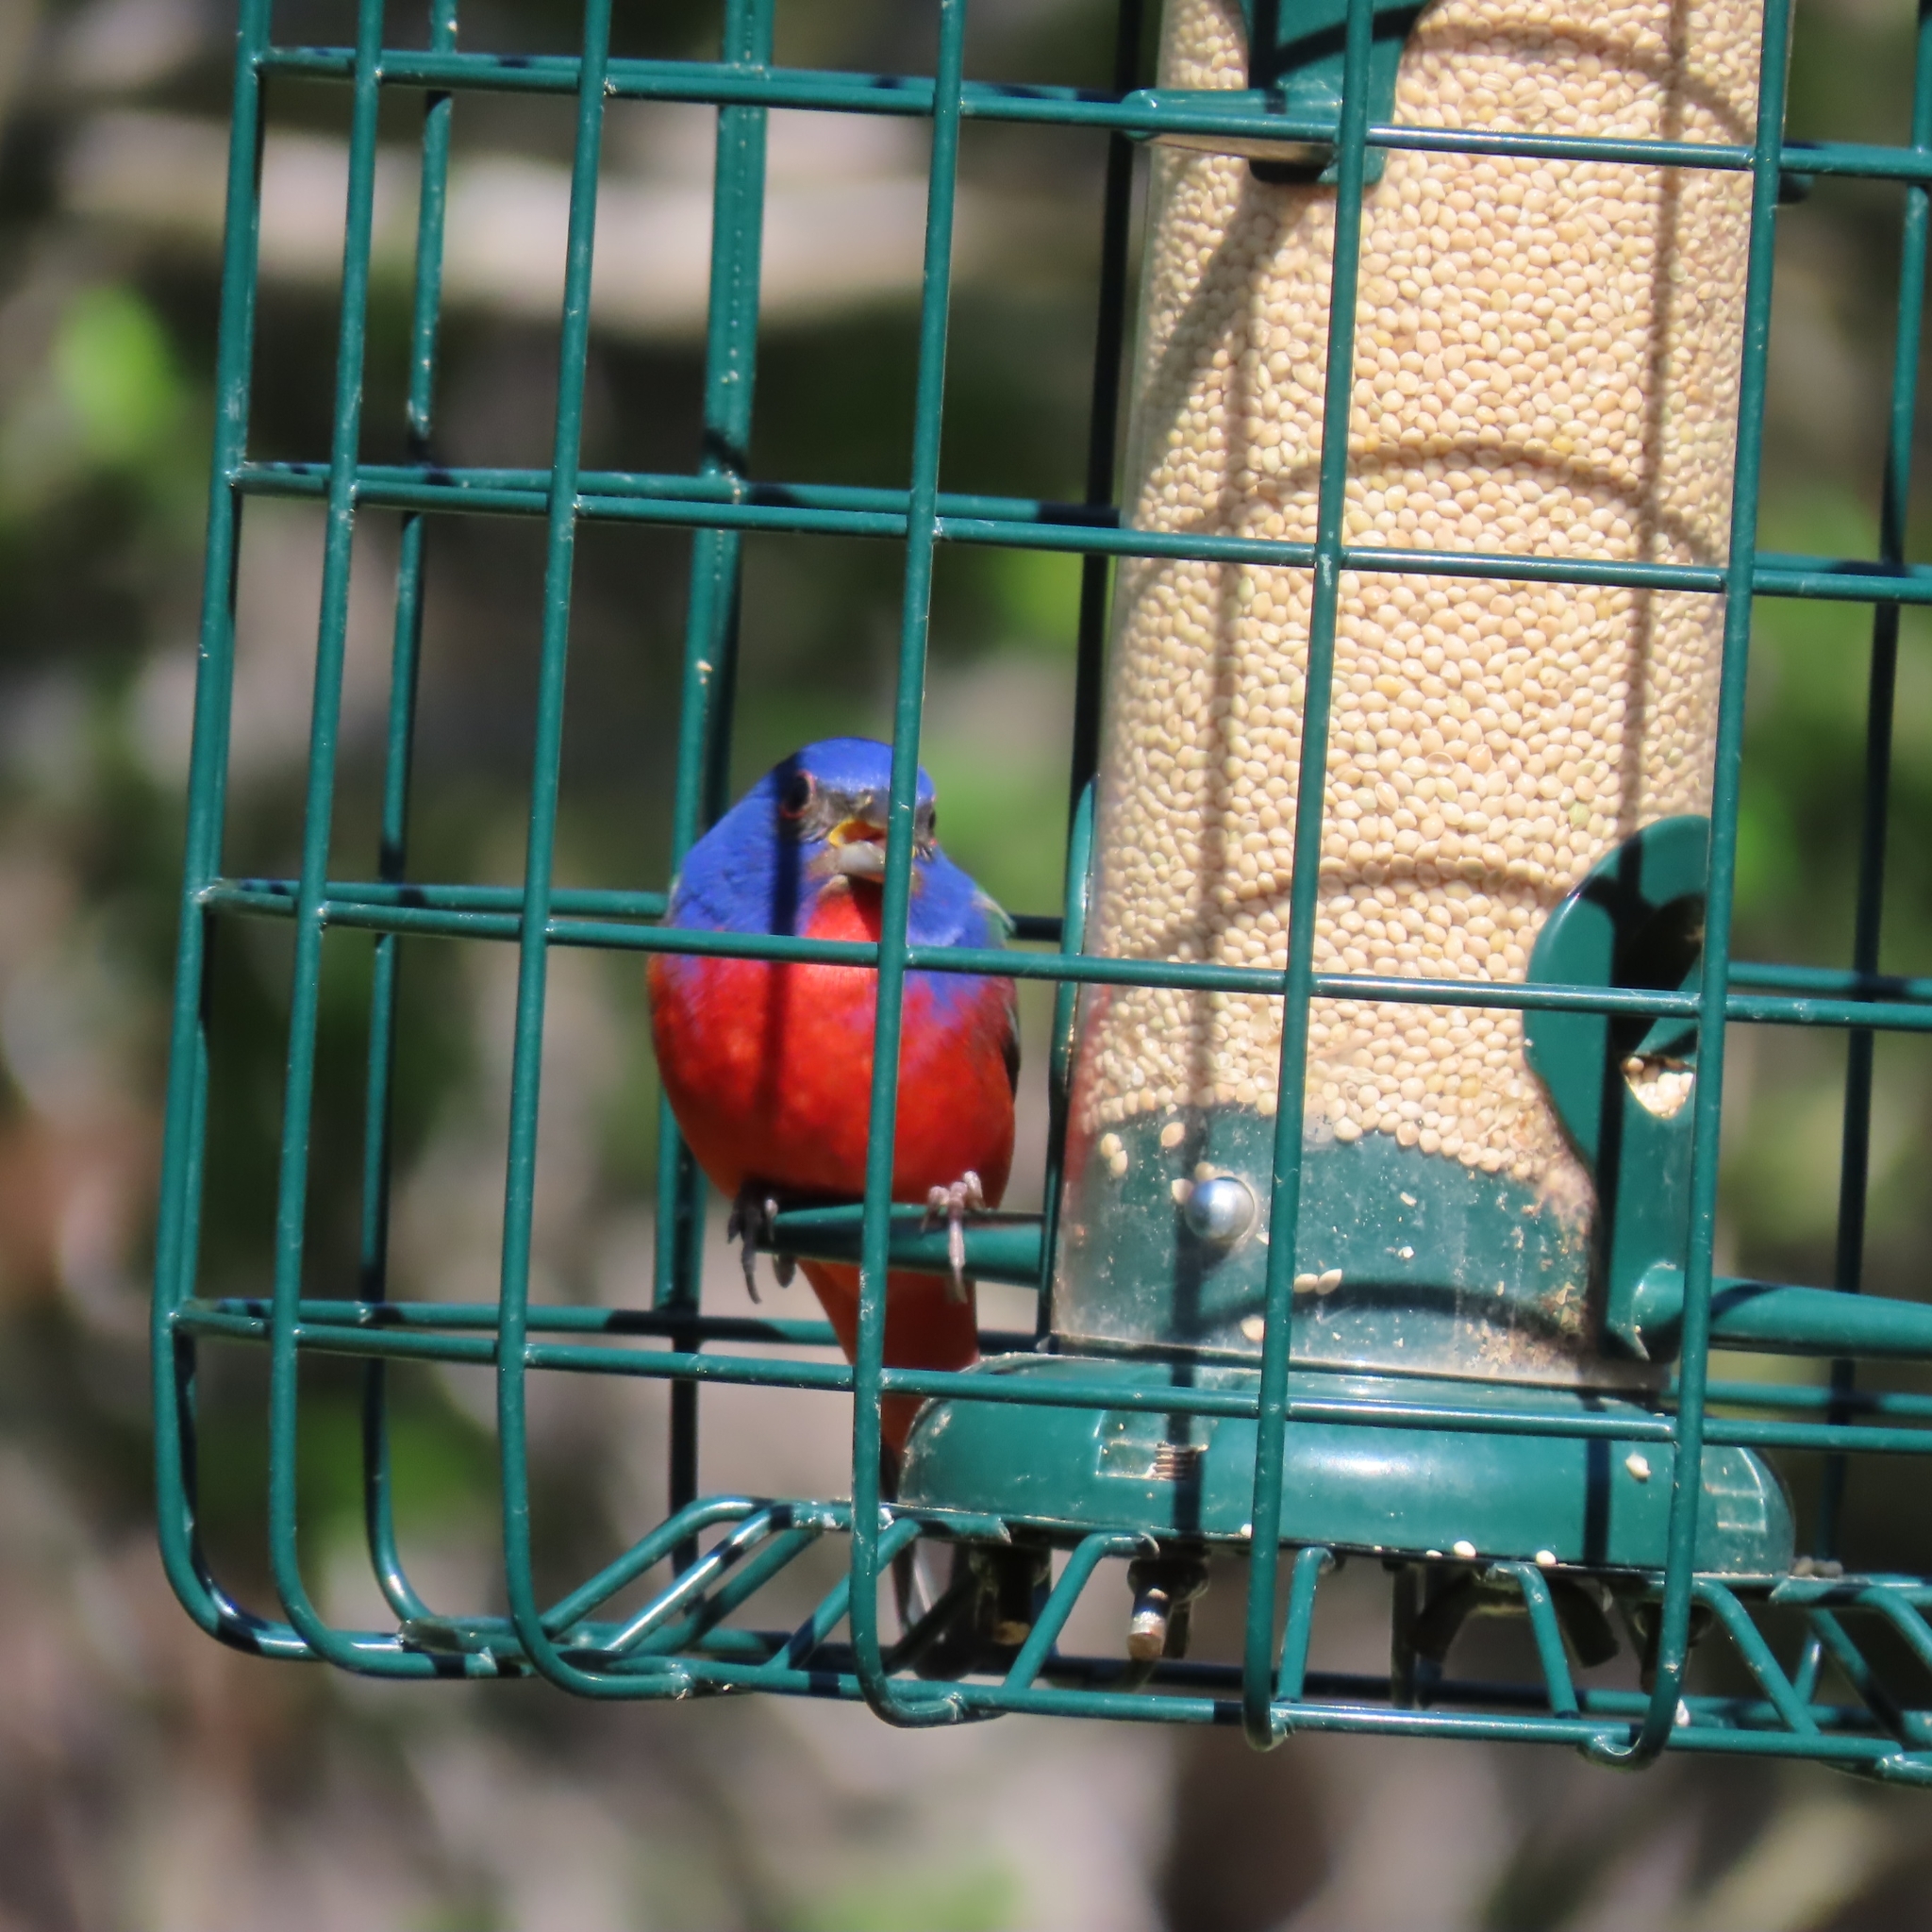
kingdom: Animalia
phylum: Chordata
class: Aves
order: Passeriformes
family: Cardinalidae
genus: Passerina
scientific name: Passerina ciris
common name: Painted bunting
